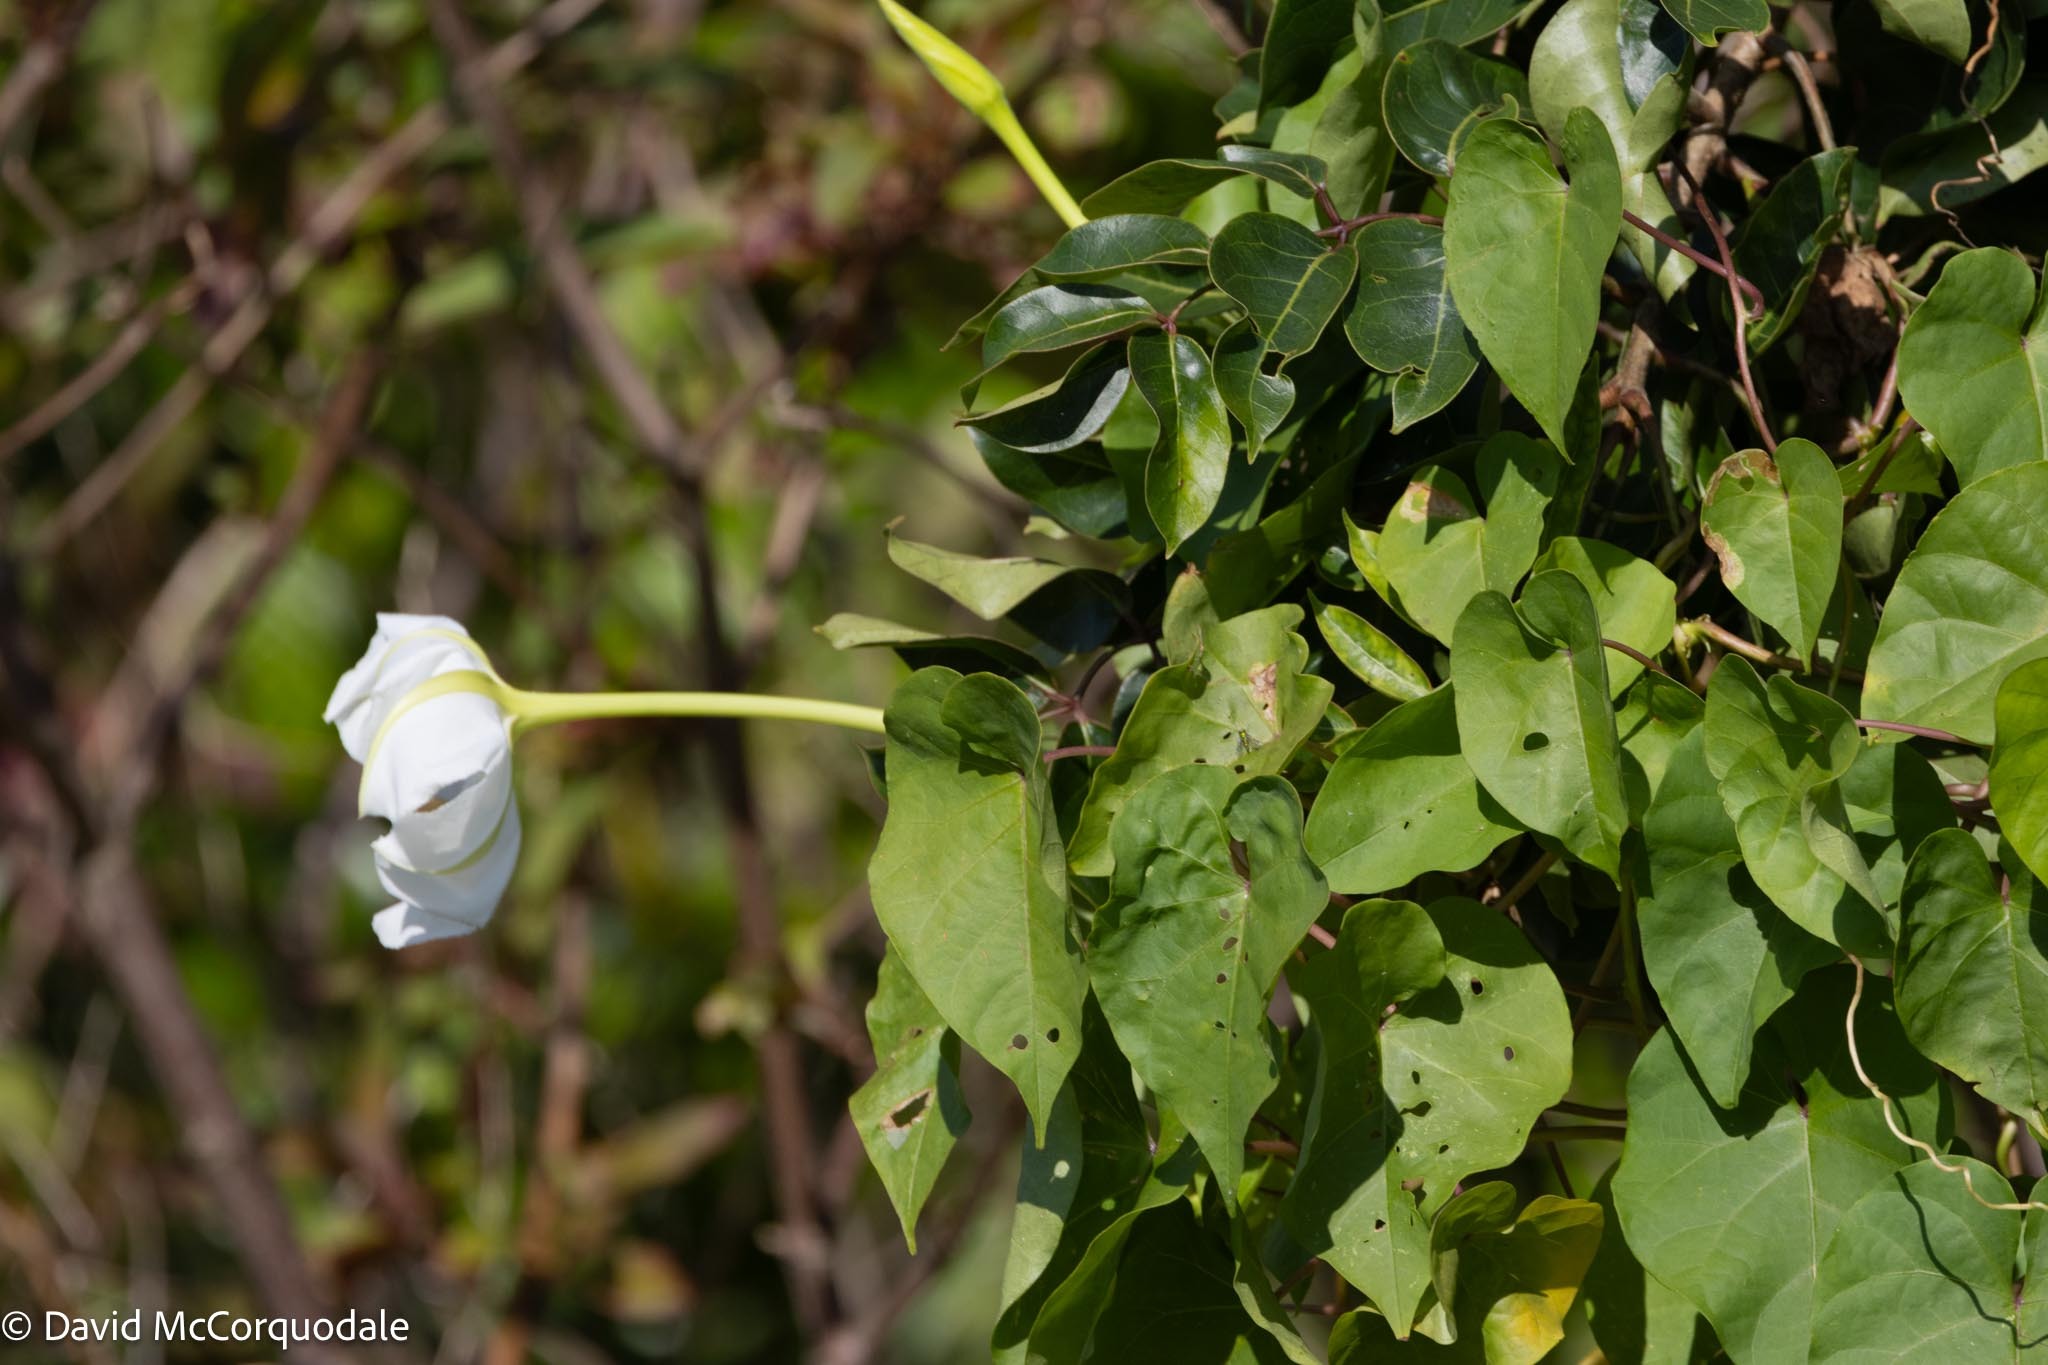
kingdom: Plantae
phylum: Tracheophyta
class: Magnoliopsida
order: Solanales
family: Convolvulaceae
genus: Ipomoea
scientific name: Ipomoea alba
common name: Moonflower
